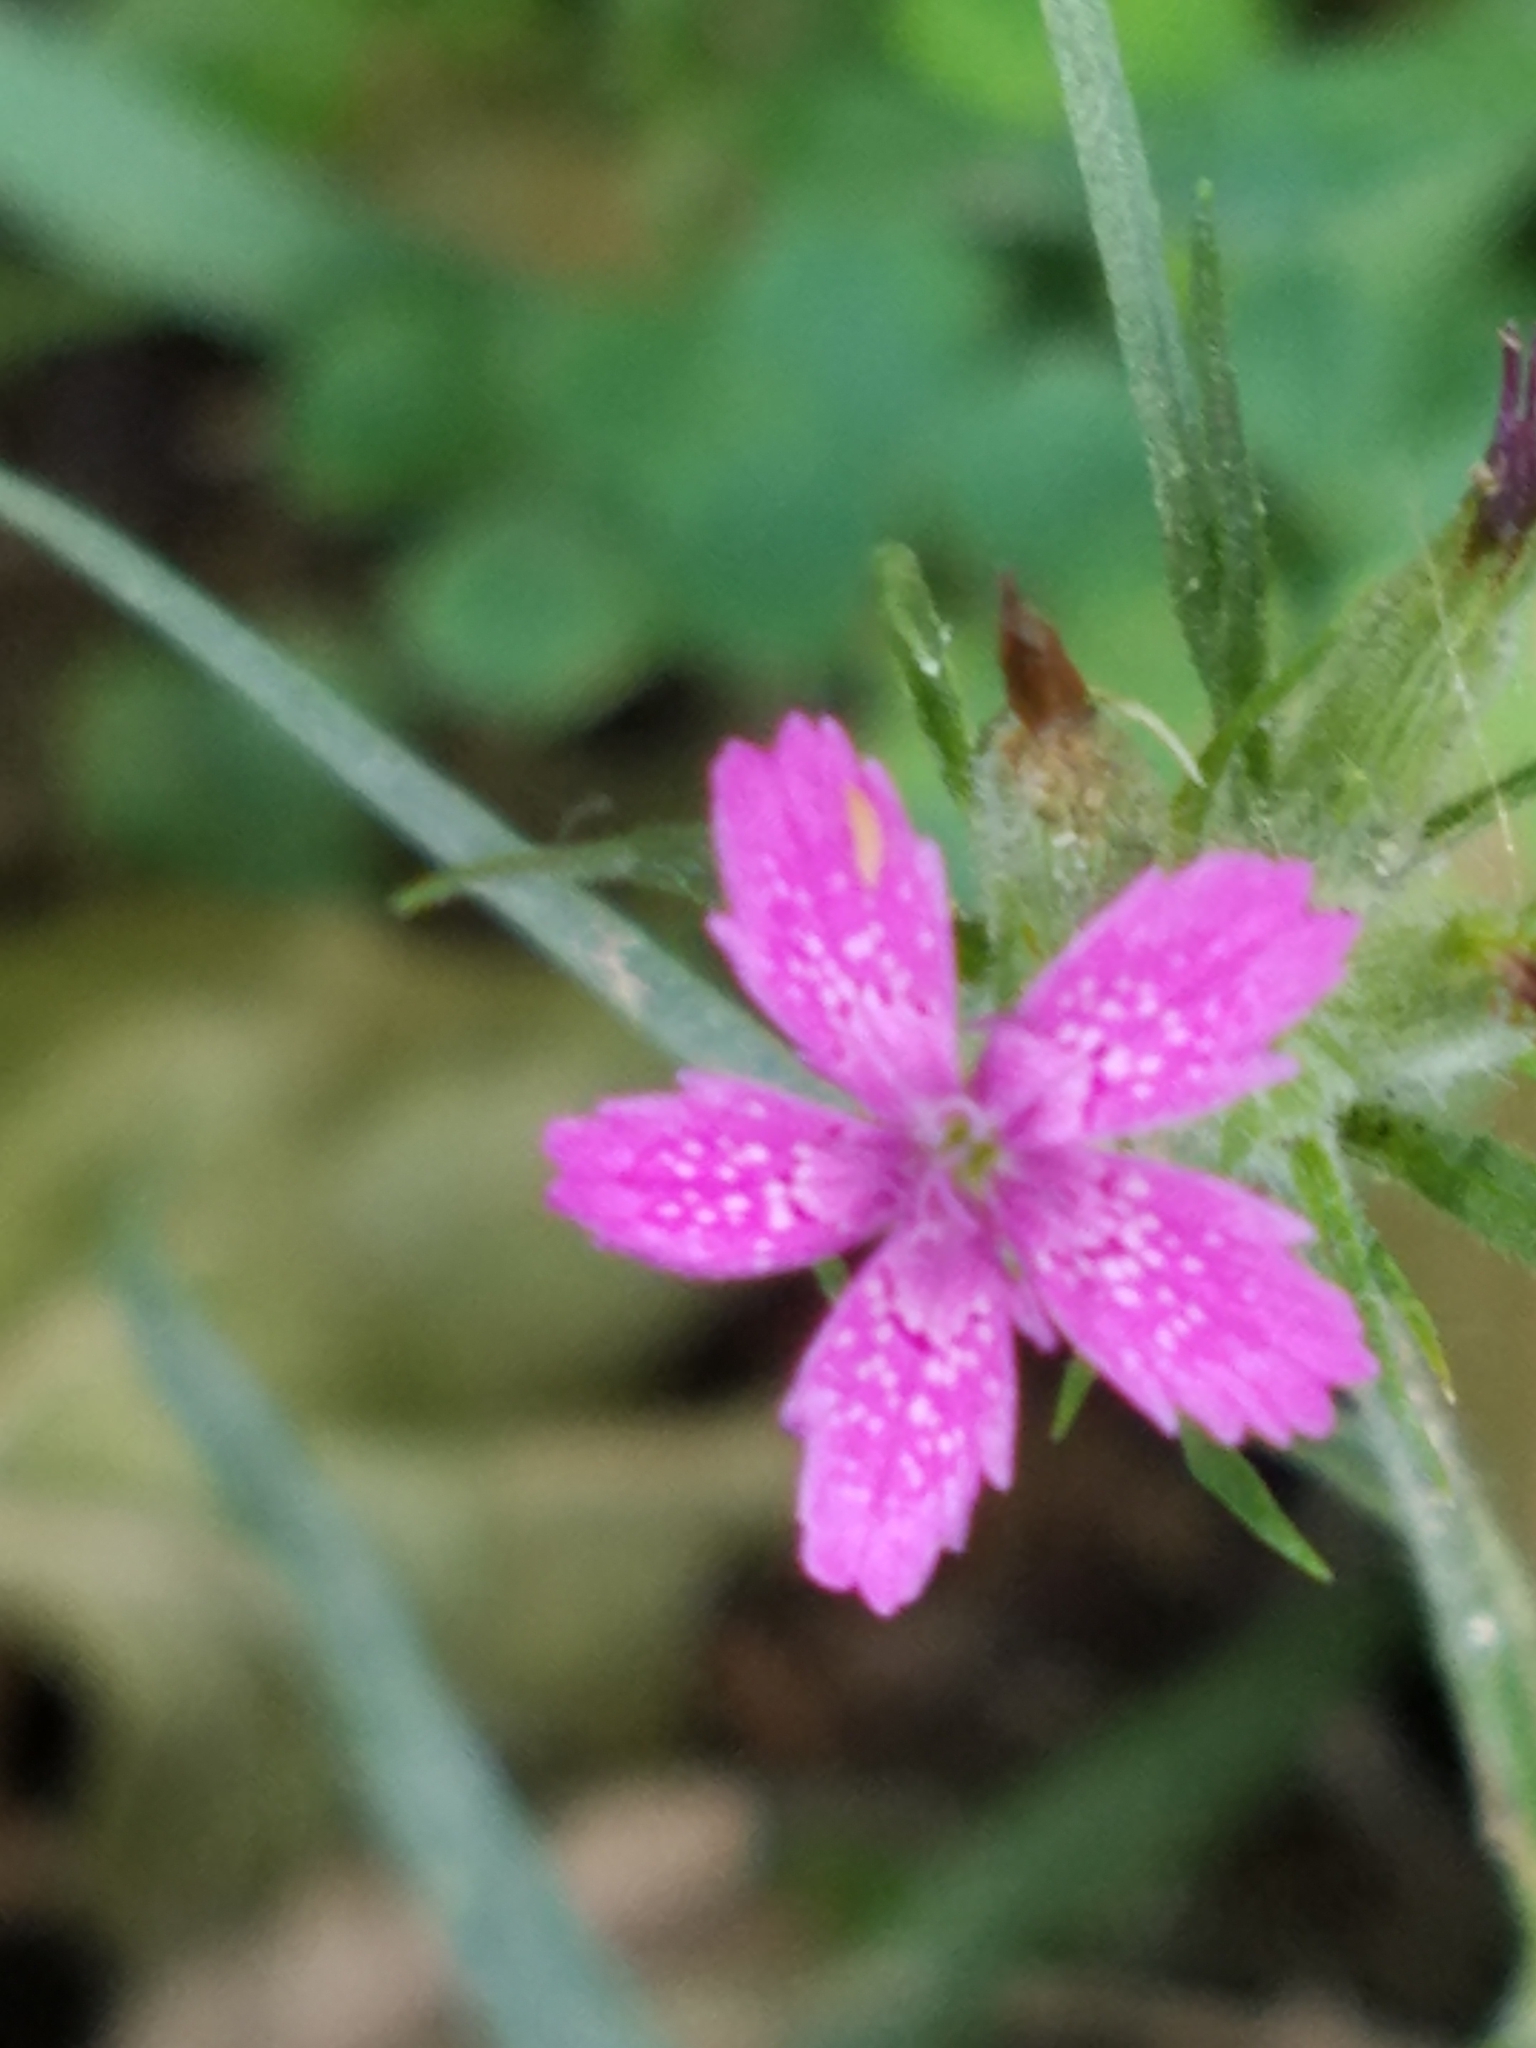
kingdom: Plantae
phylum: Tracheophyta
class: Magnoliopsida
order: Caryophyllales
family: Caryophyllaceae
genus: Dianthus
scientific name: Dianthus armeria
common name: Deptford pink
